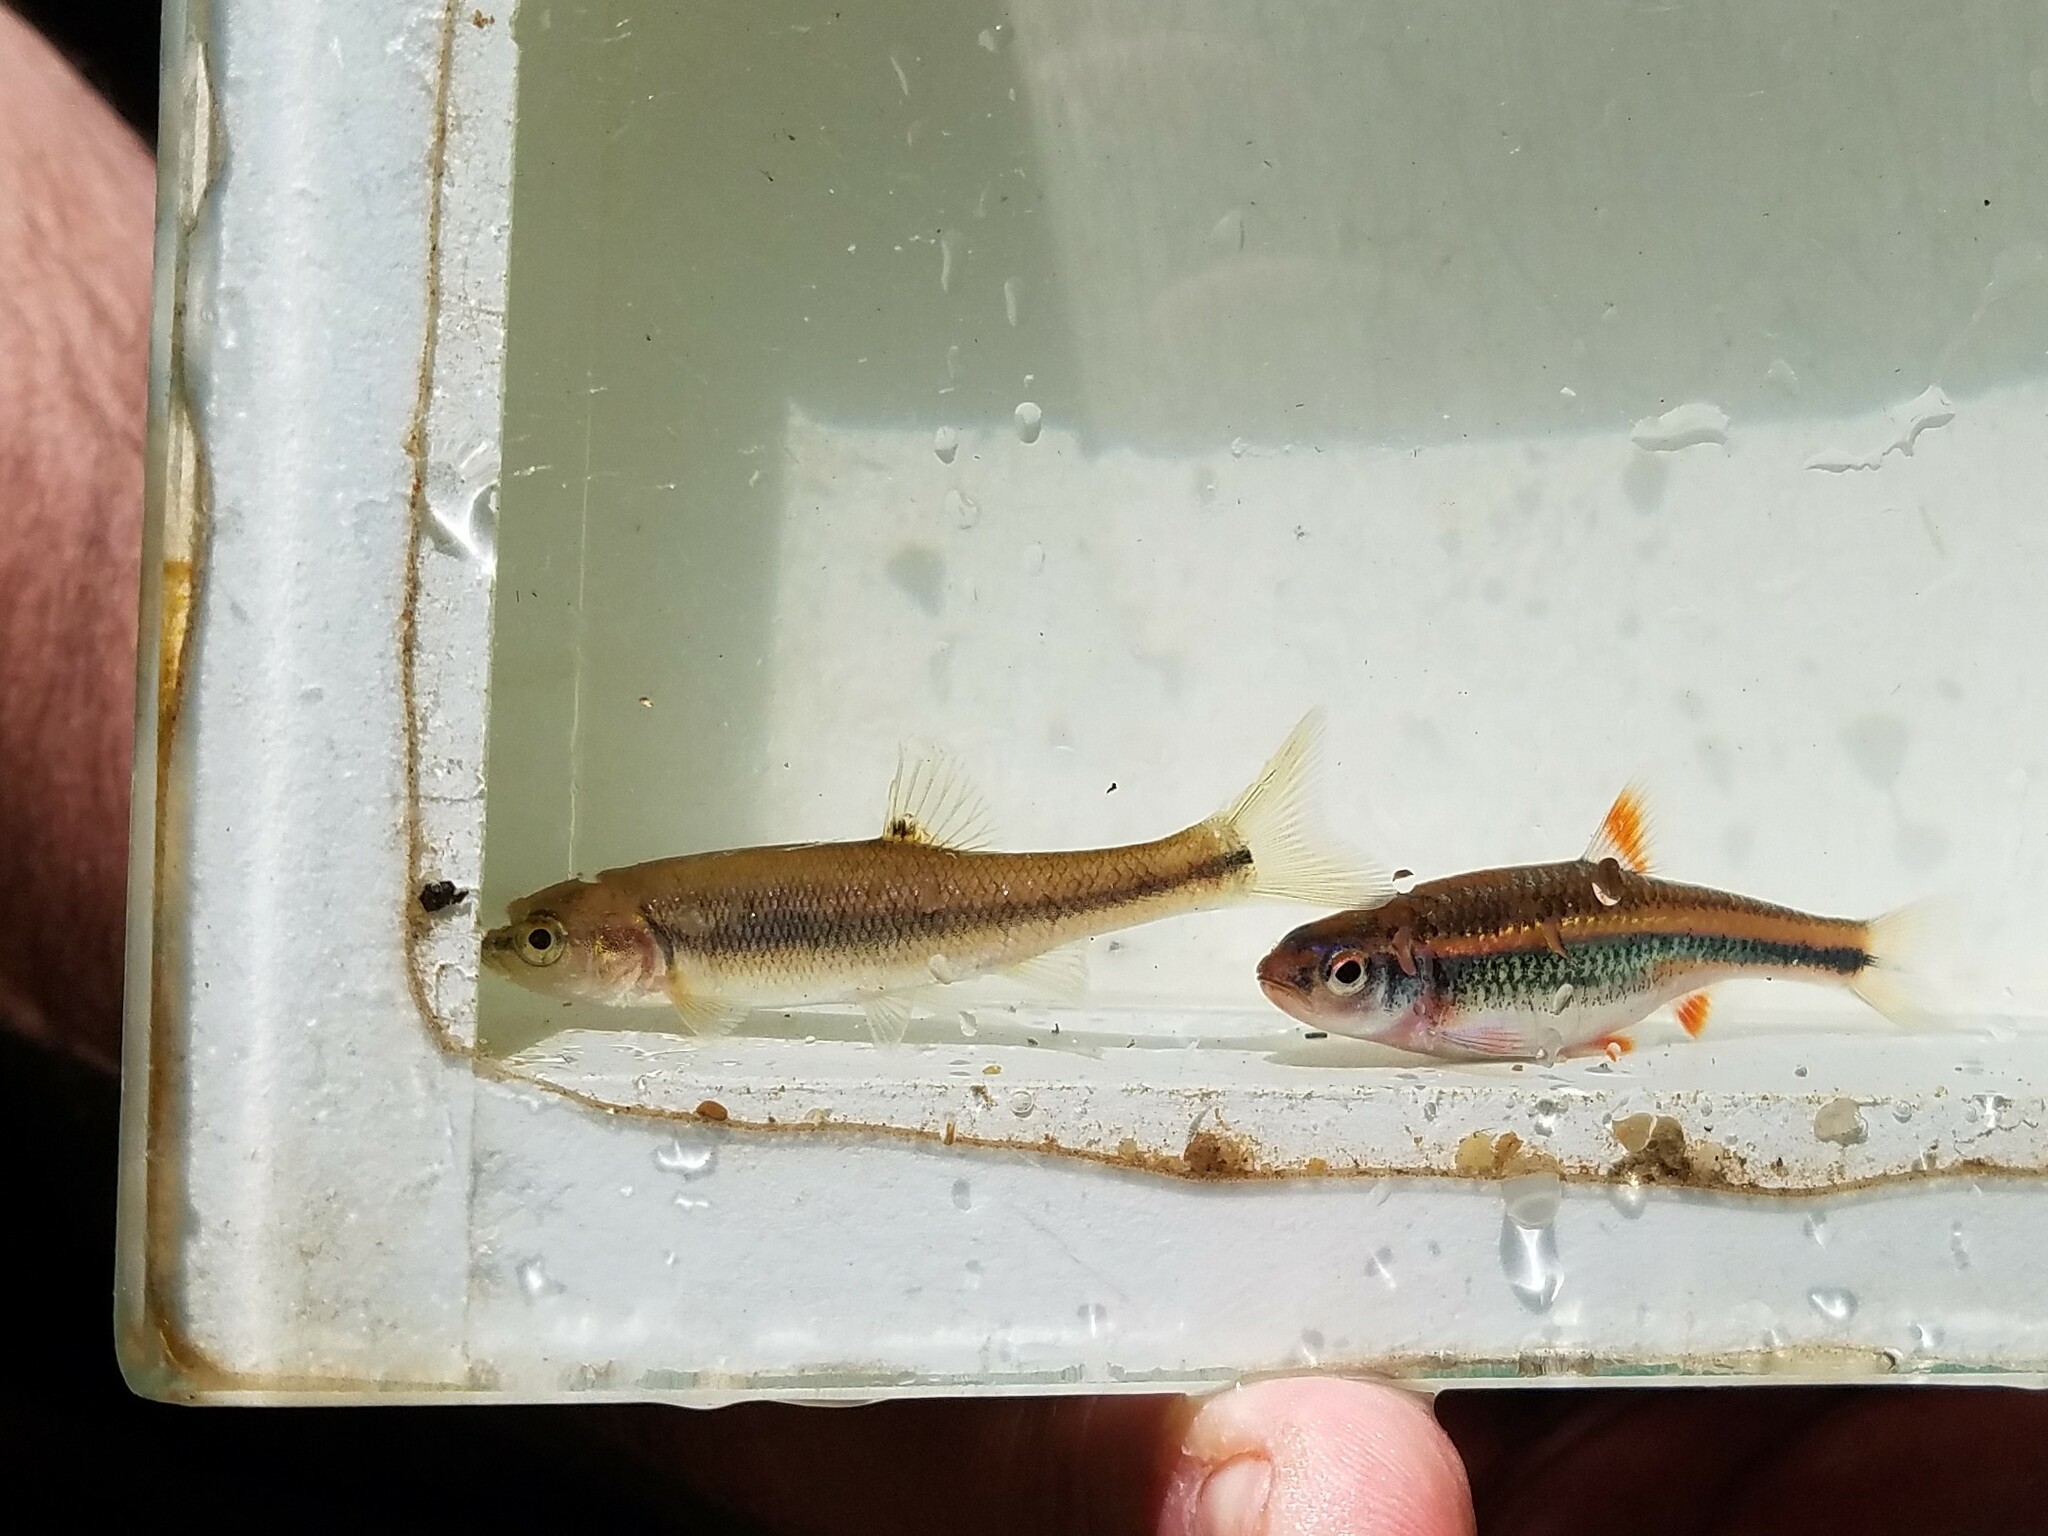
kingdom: Animalia
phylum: Chordata
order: Cypriniformes
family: Cyprinidae
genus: Semotilus
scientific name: Semotilus atromaculatus
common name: Creek chub
